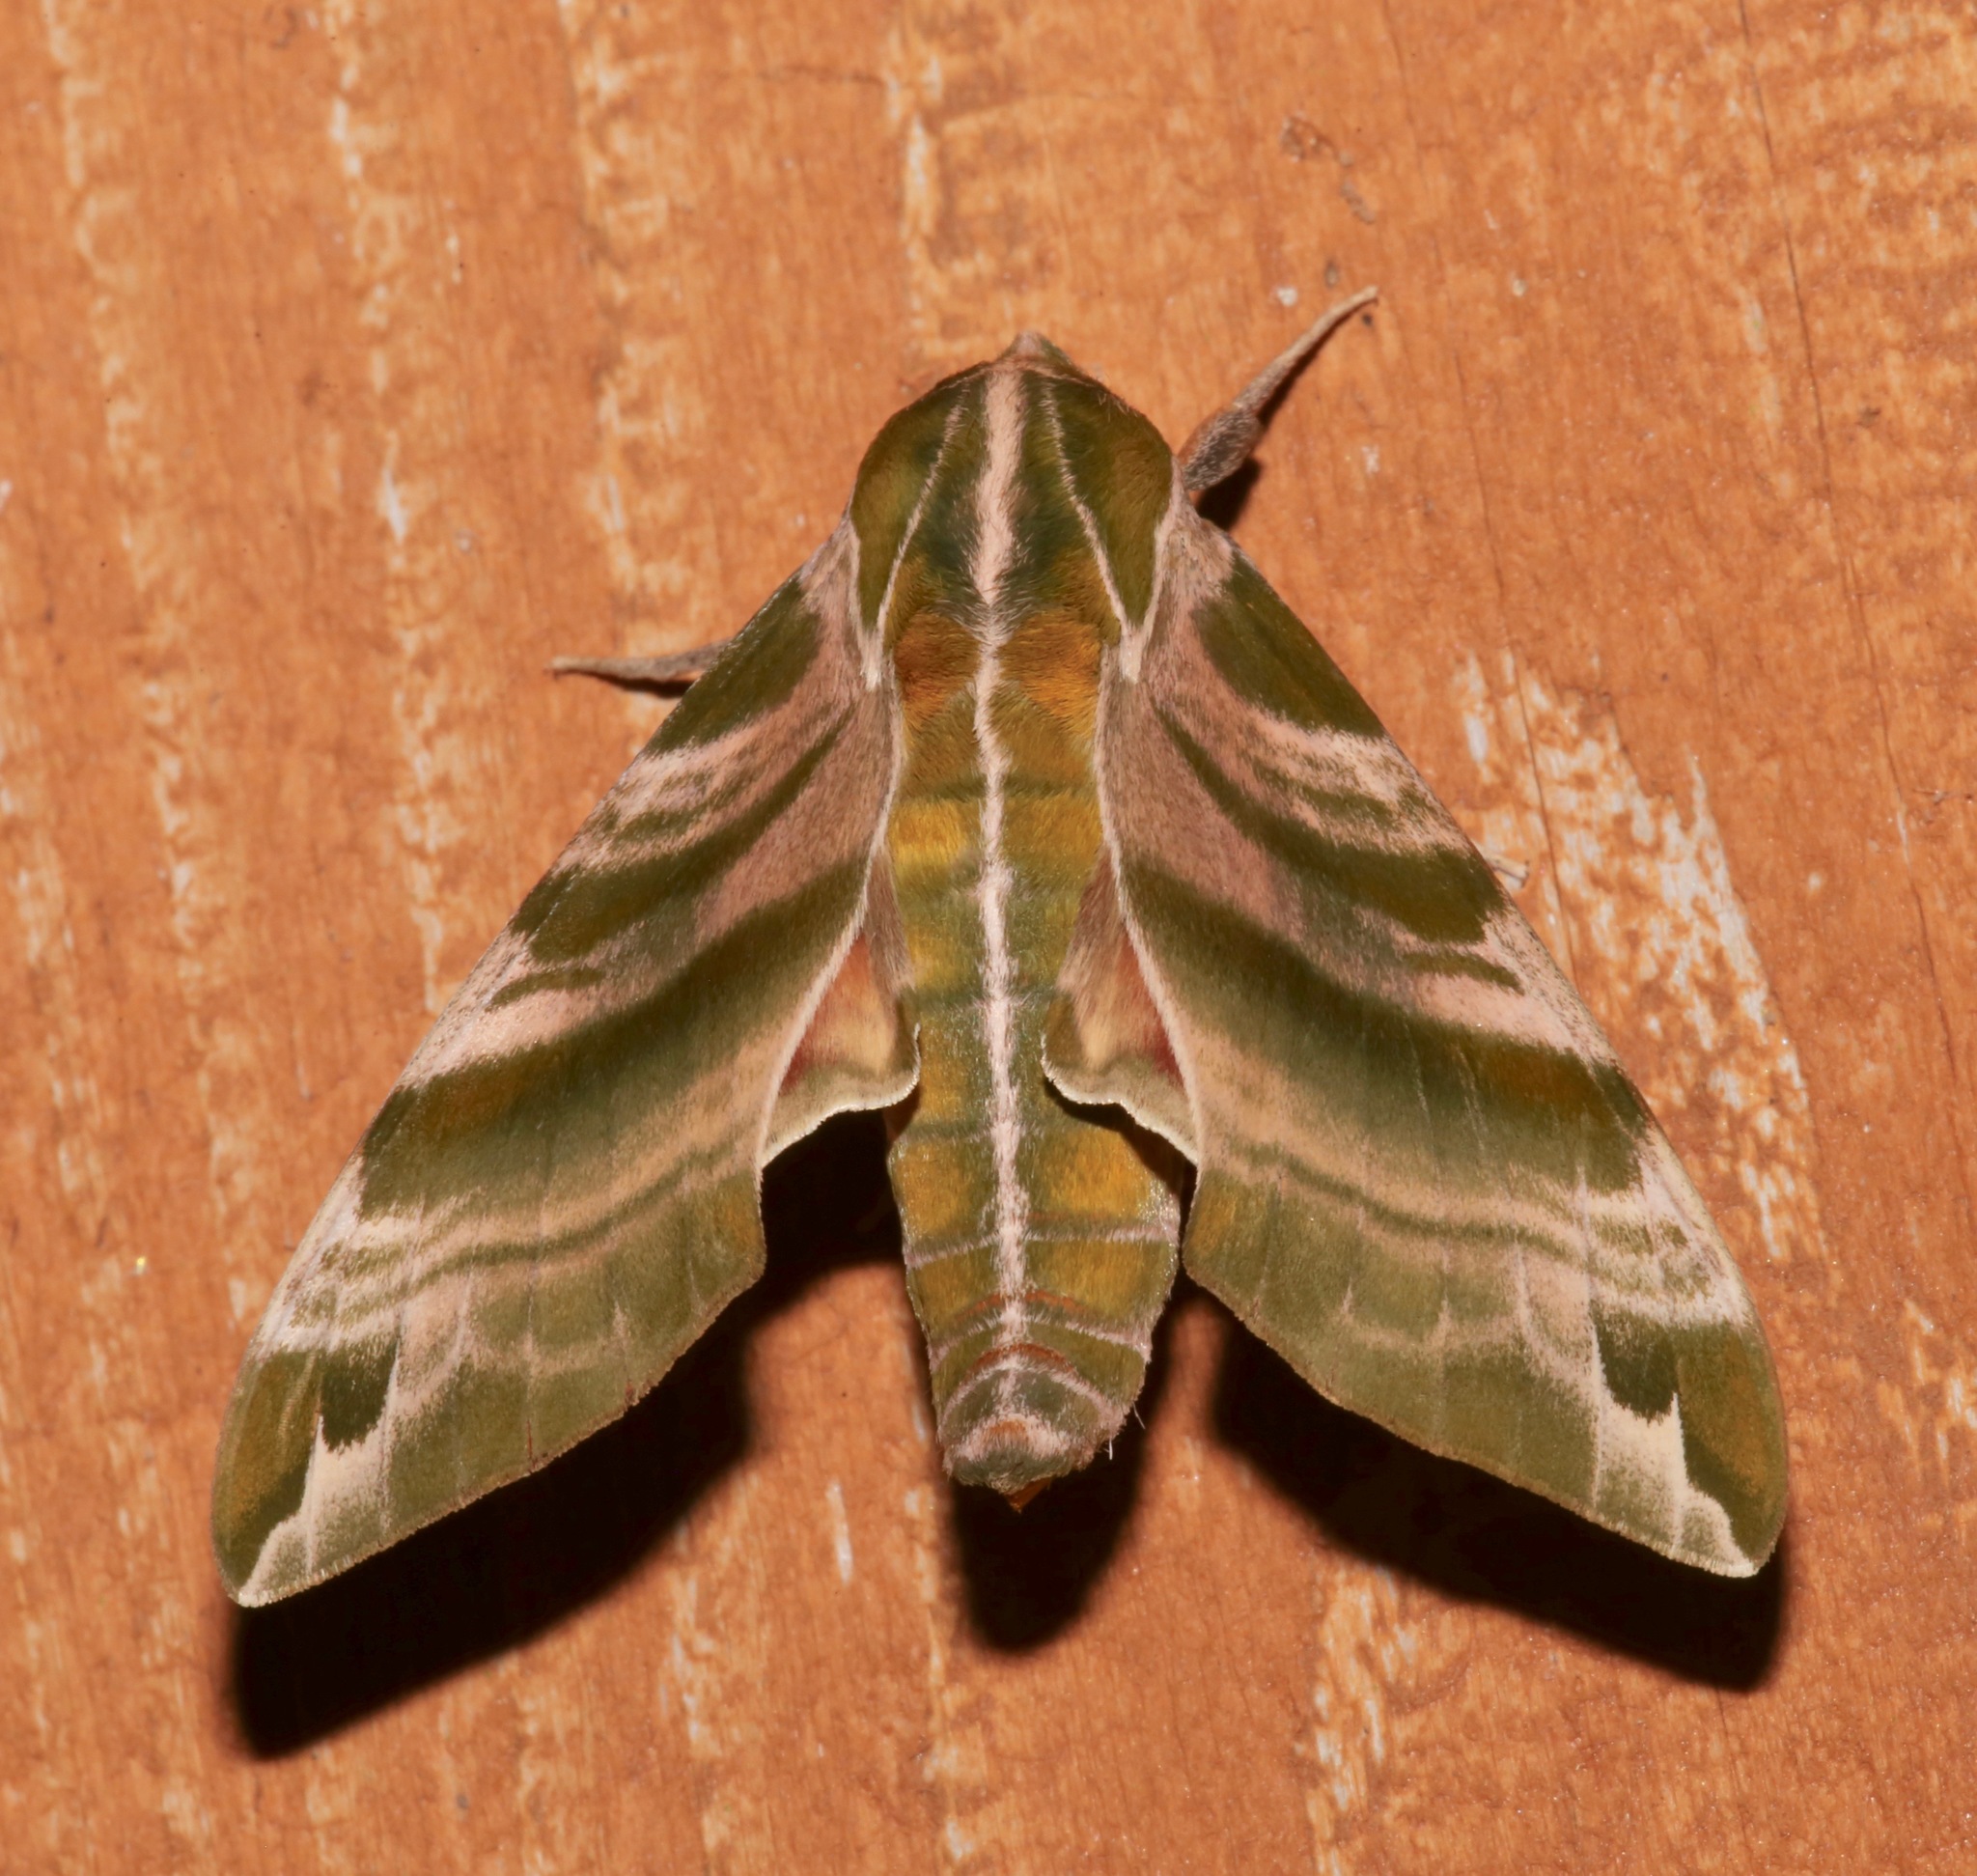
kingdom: Animalia
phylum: Arthropoda
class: Insecta
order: Lepidoptera
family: Sphingidae
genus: Darapsa
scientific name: Darapsa versicolor
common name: Hydrangea sphinx
